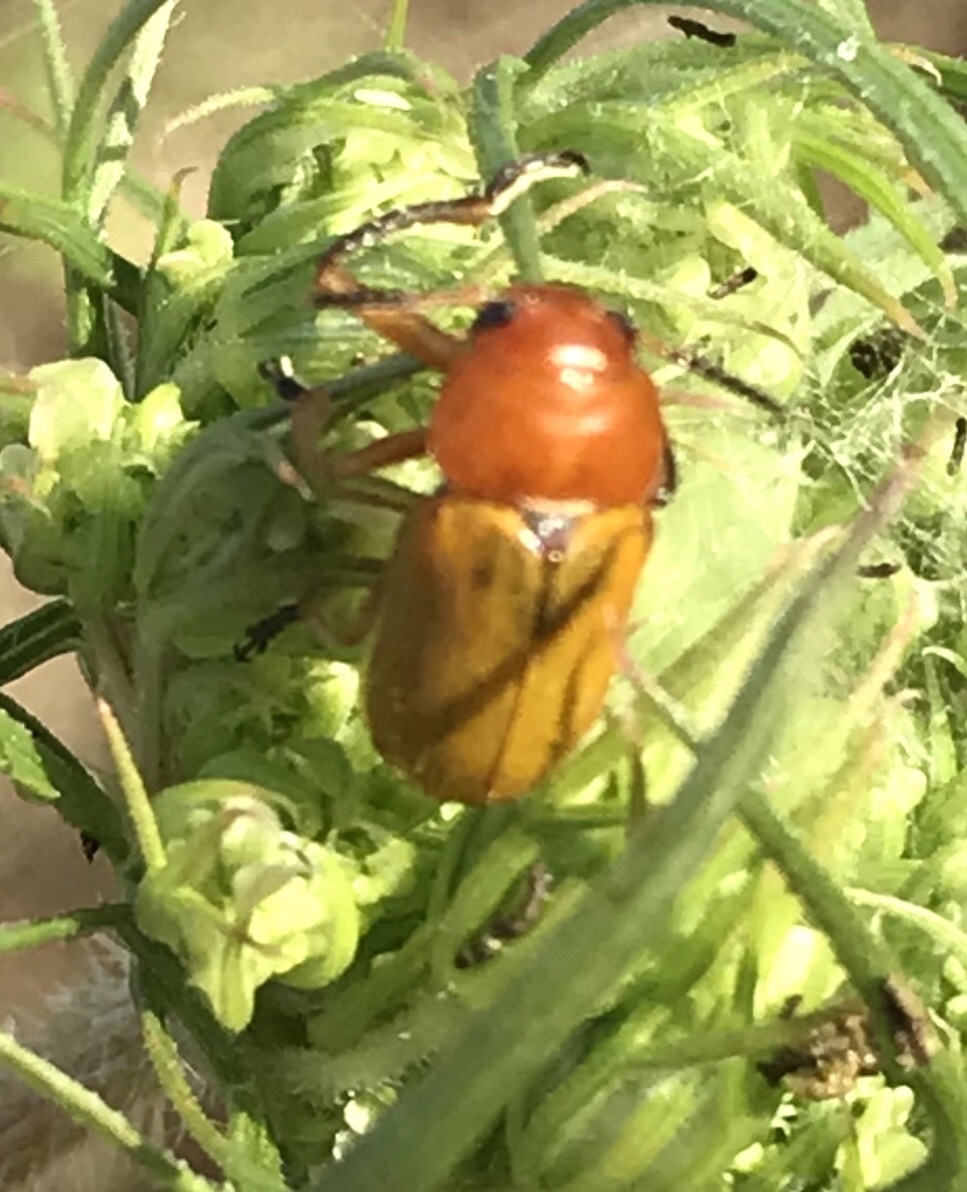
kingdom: Animalia
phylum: Arthropoda
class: Insecta
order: Coleoptera
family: Chrysomelidae
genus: Anomoea
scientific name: Anomoea flavokansiensis
